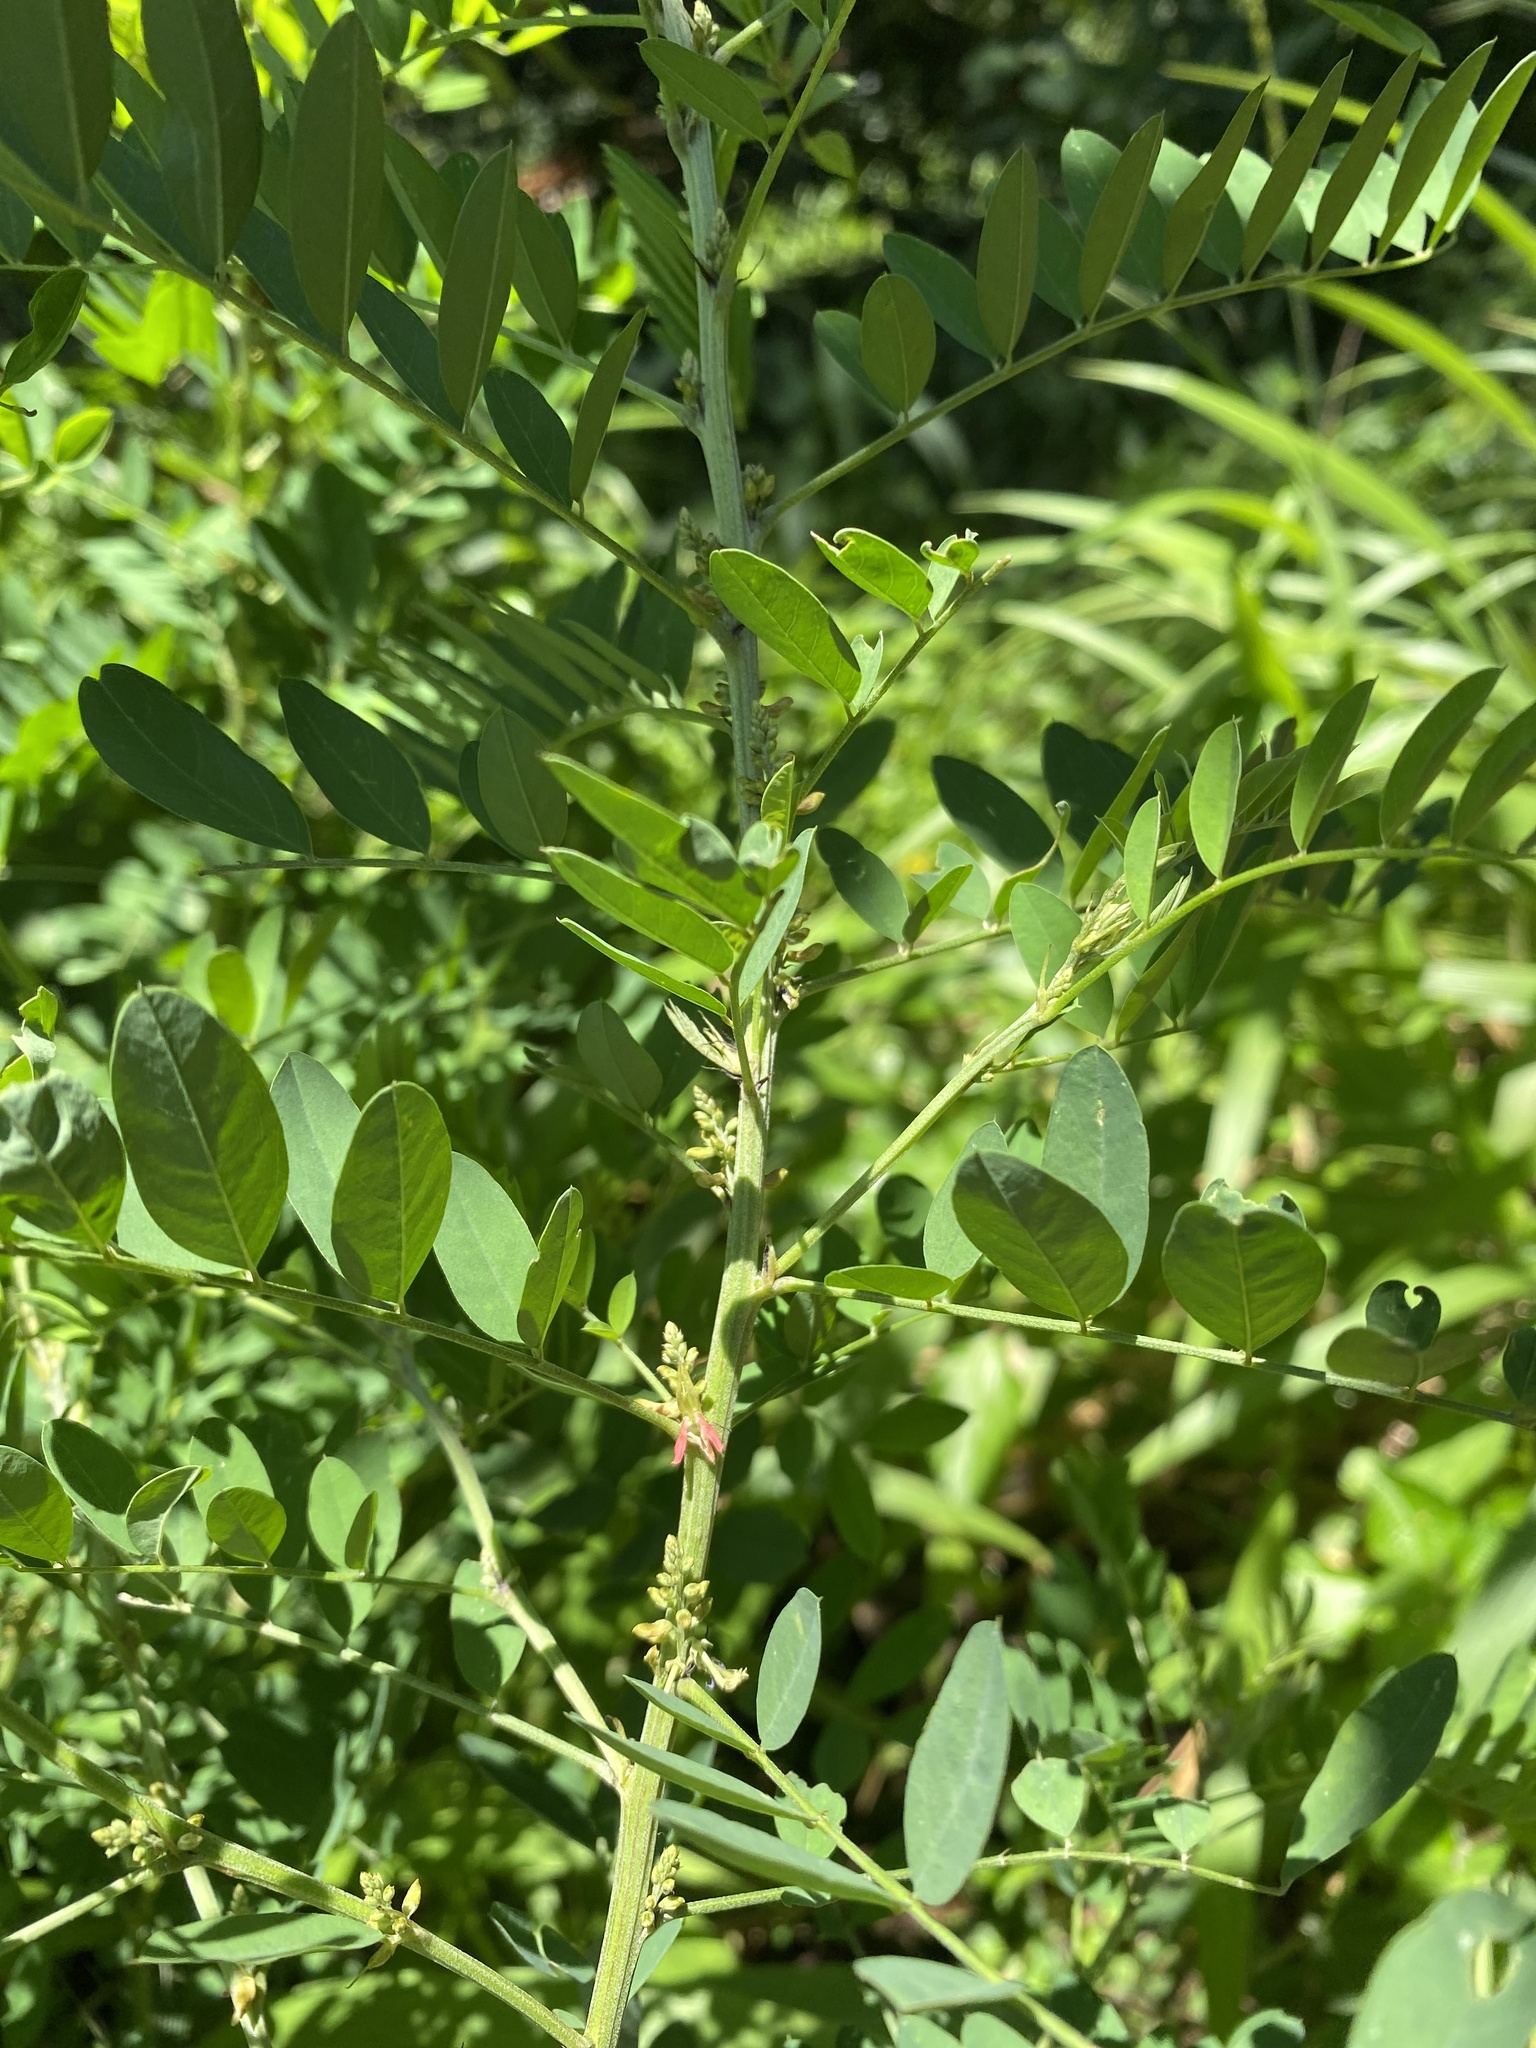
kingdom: Plantae
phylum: Tracheophyta
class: Magnoliopsida
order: Fabales
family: Fabaceae
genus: Indigofera
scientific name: Indigofera arrecta
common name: Bengal indigo
